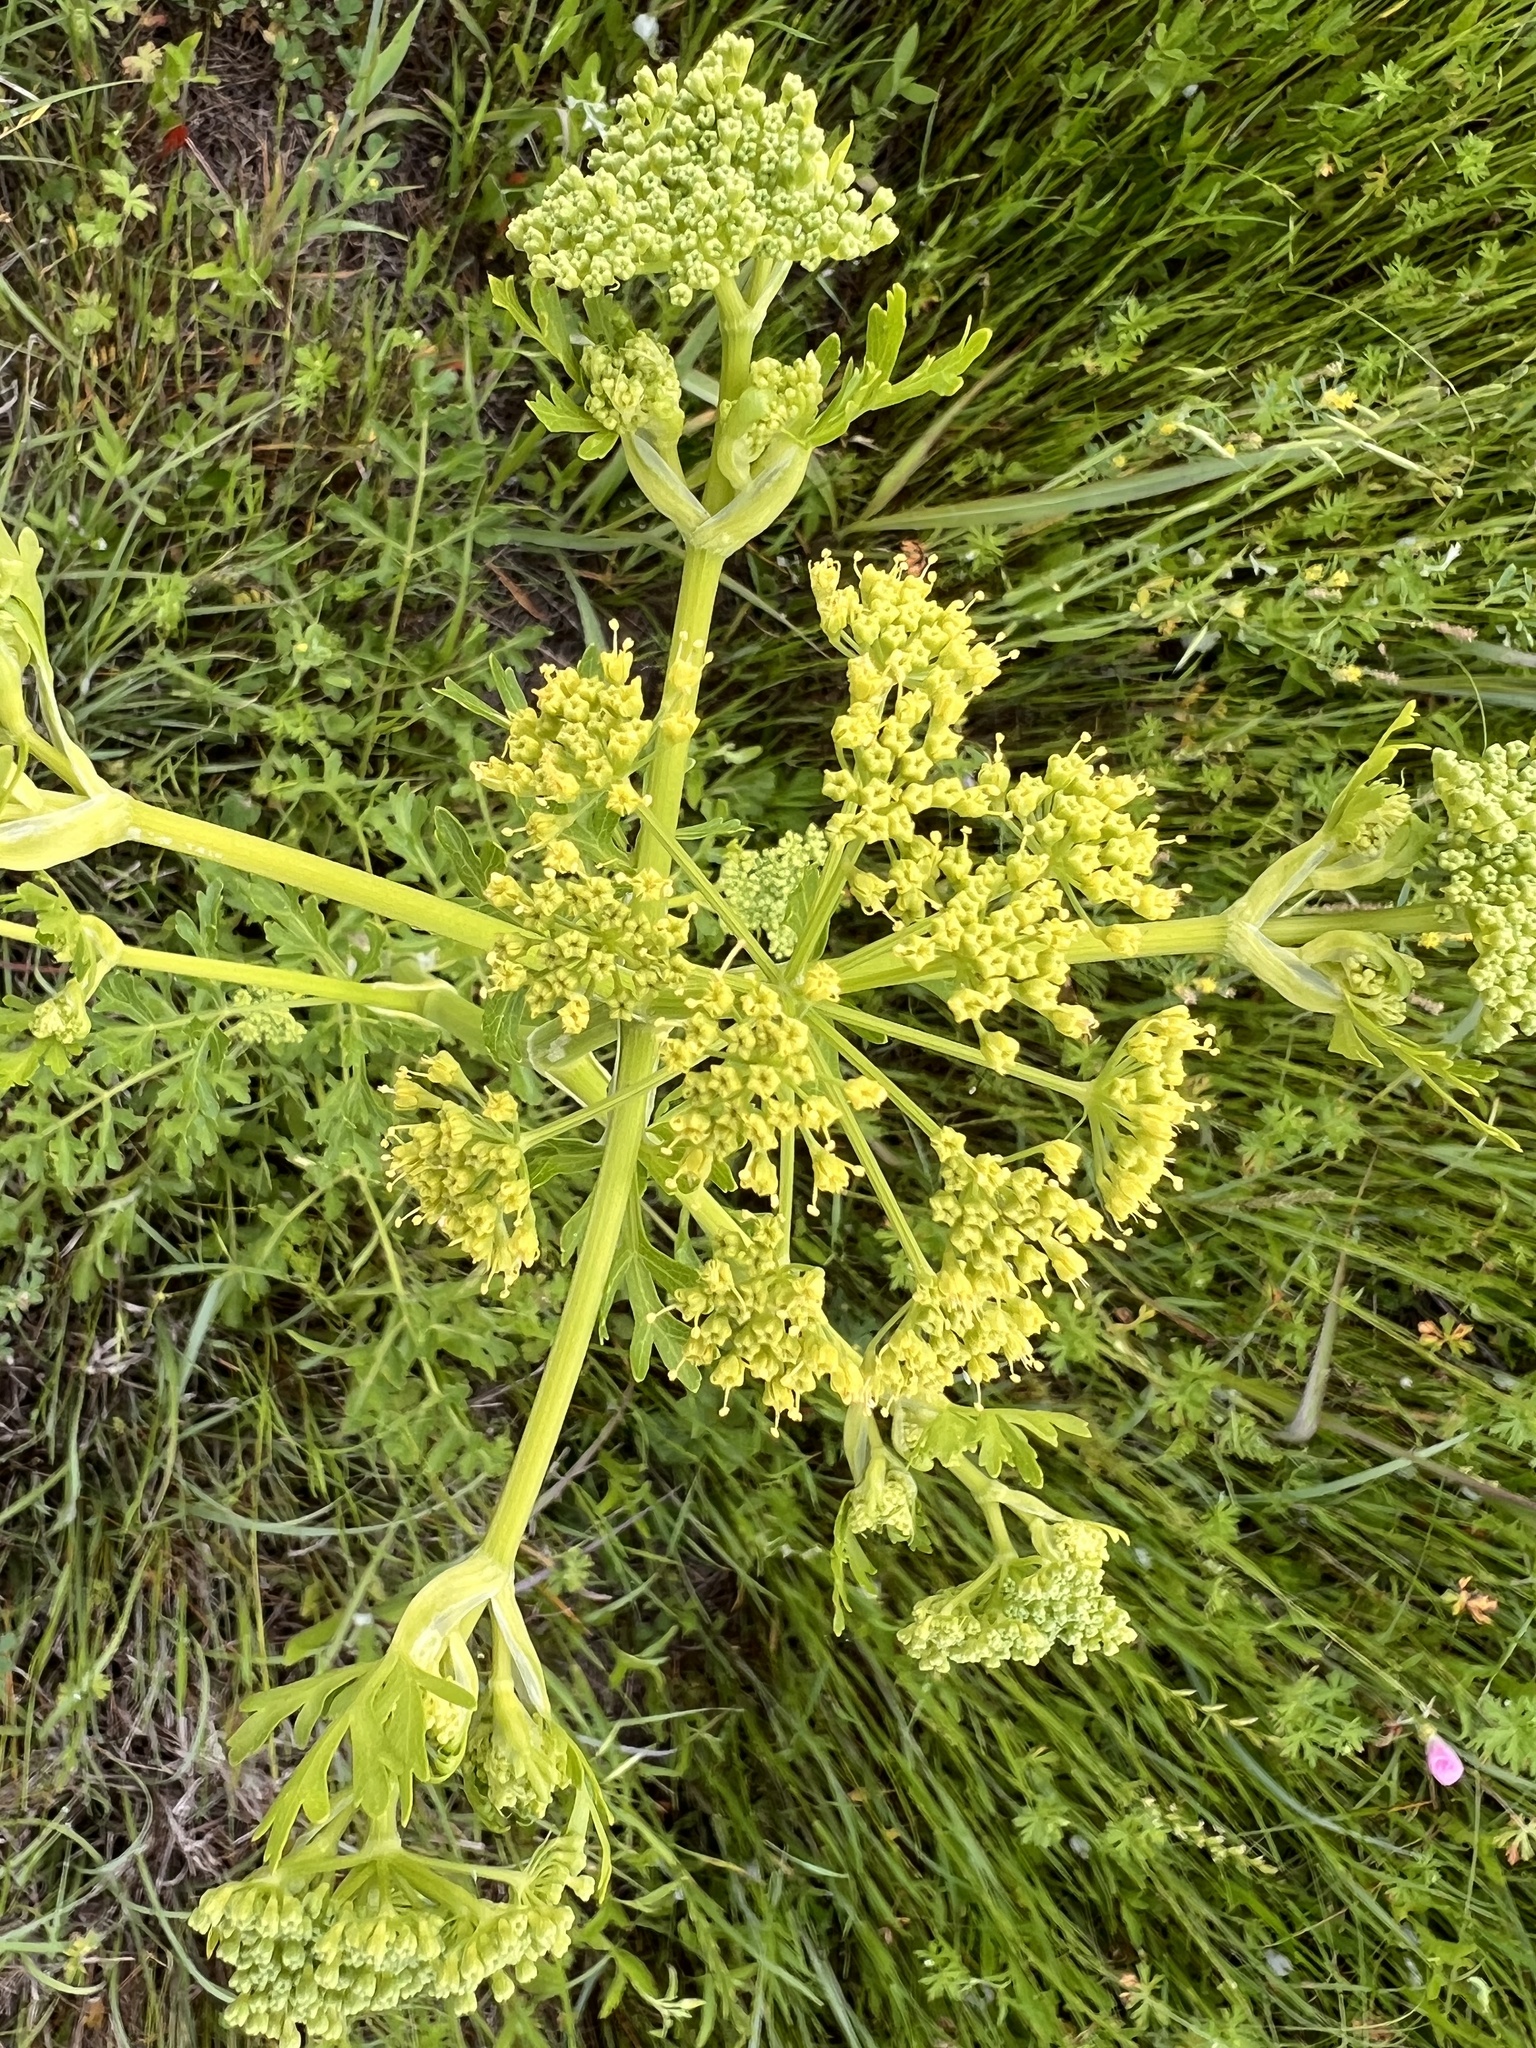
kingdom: Plantae
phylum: Tracheophyta
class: Magnoliopsida
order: Apiales
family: Apiaceae
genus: Polytaenia
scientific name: Polytaenia texana
